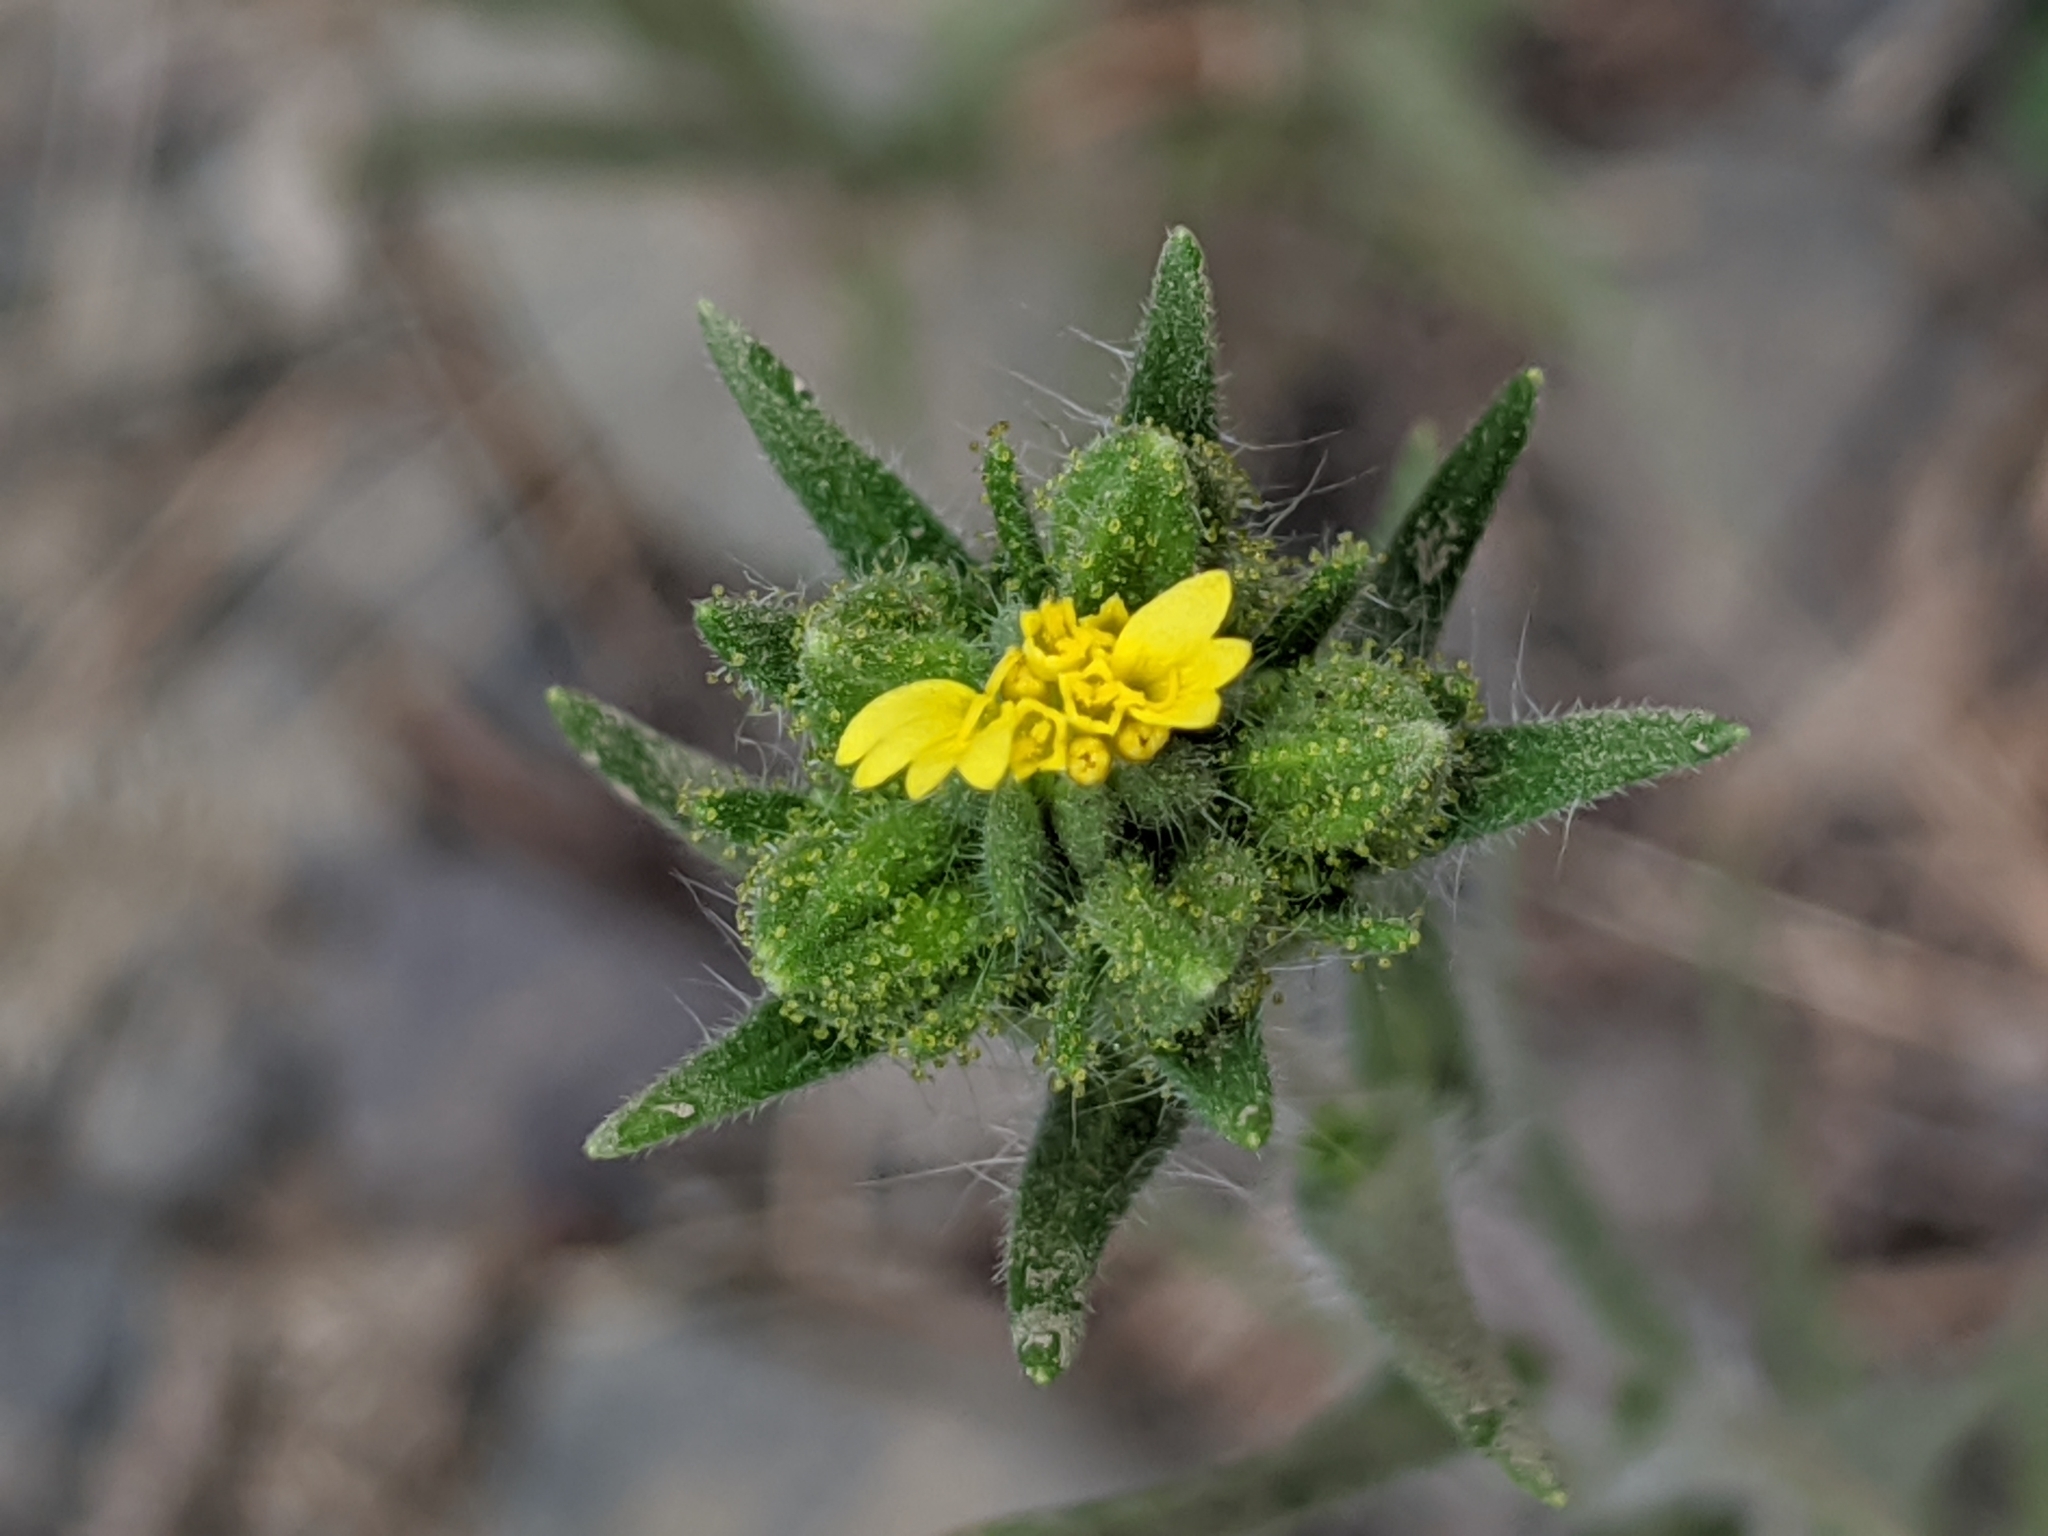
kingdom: Plantae
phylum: Tracheophyta
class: Magnoliopsida
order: Asterales
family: Asteraceae
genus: Madia
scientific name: Madia glomerata
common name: Mountain tarweed
